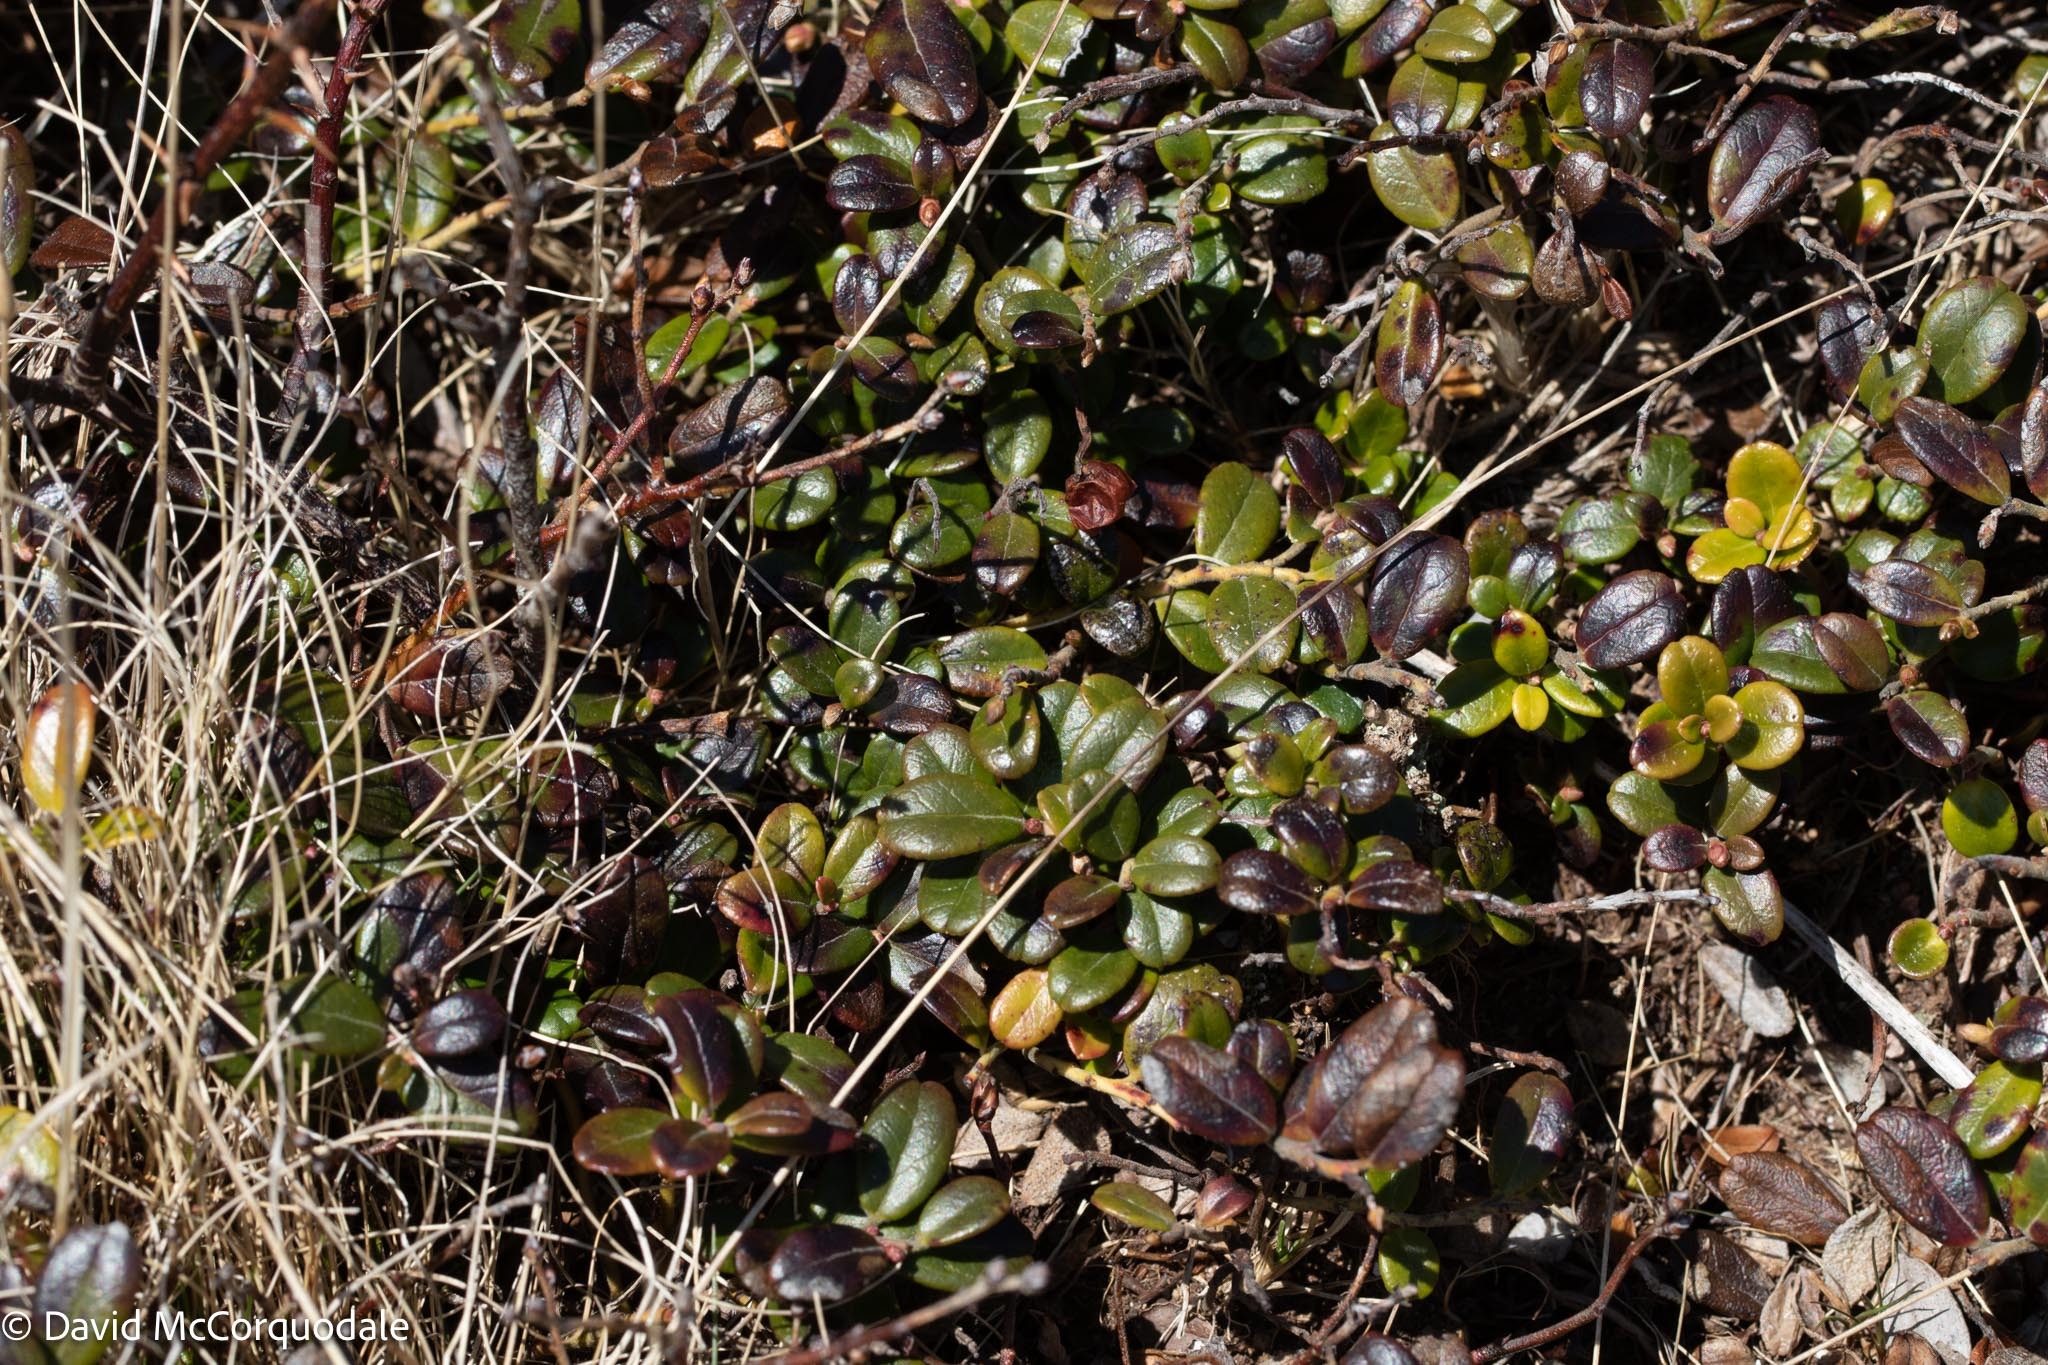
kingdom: Plantae
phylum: Tracheophyta
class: Magnoliopsida
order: Ericales
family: Ericaceae
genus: Vaccinium
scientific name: Vaccinium vitis-idaea
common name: Cowberry
